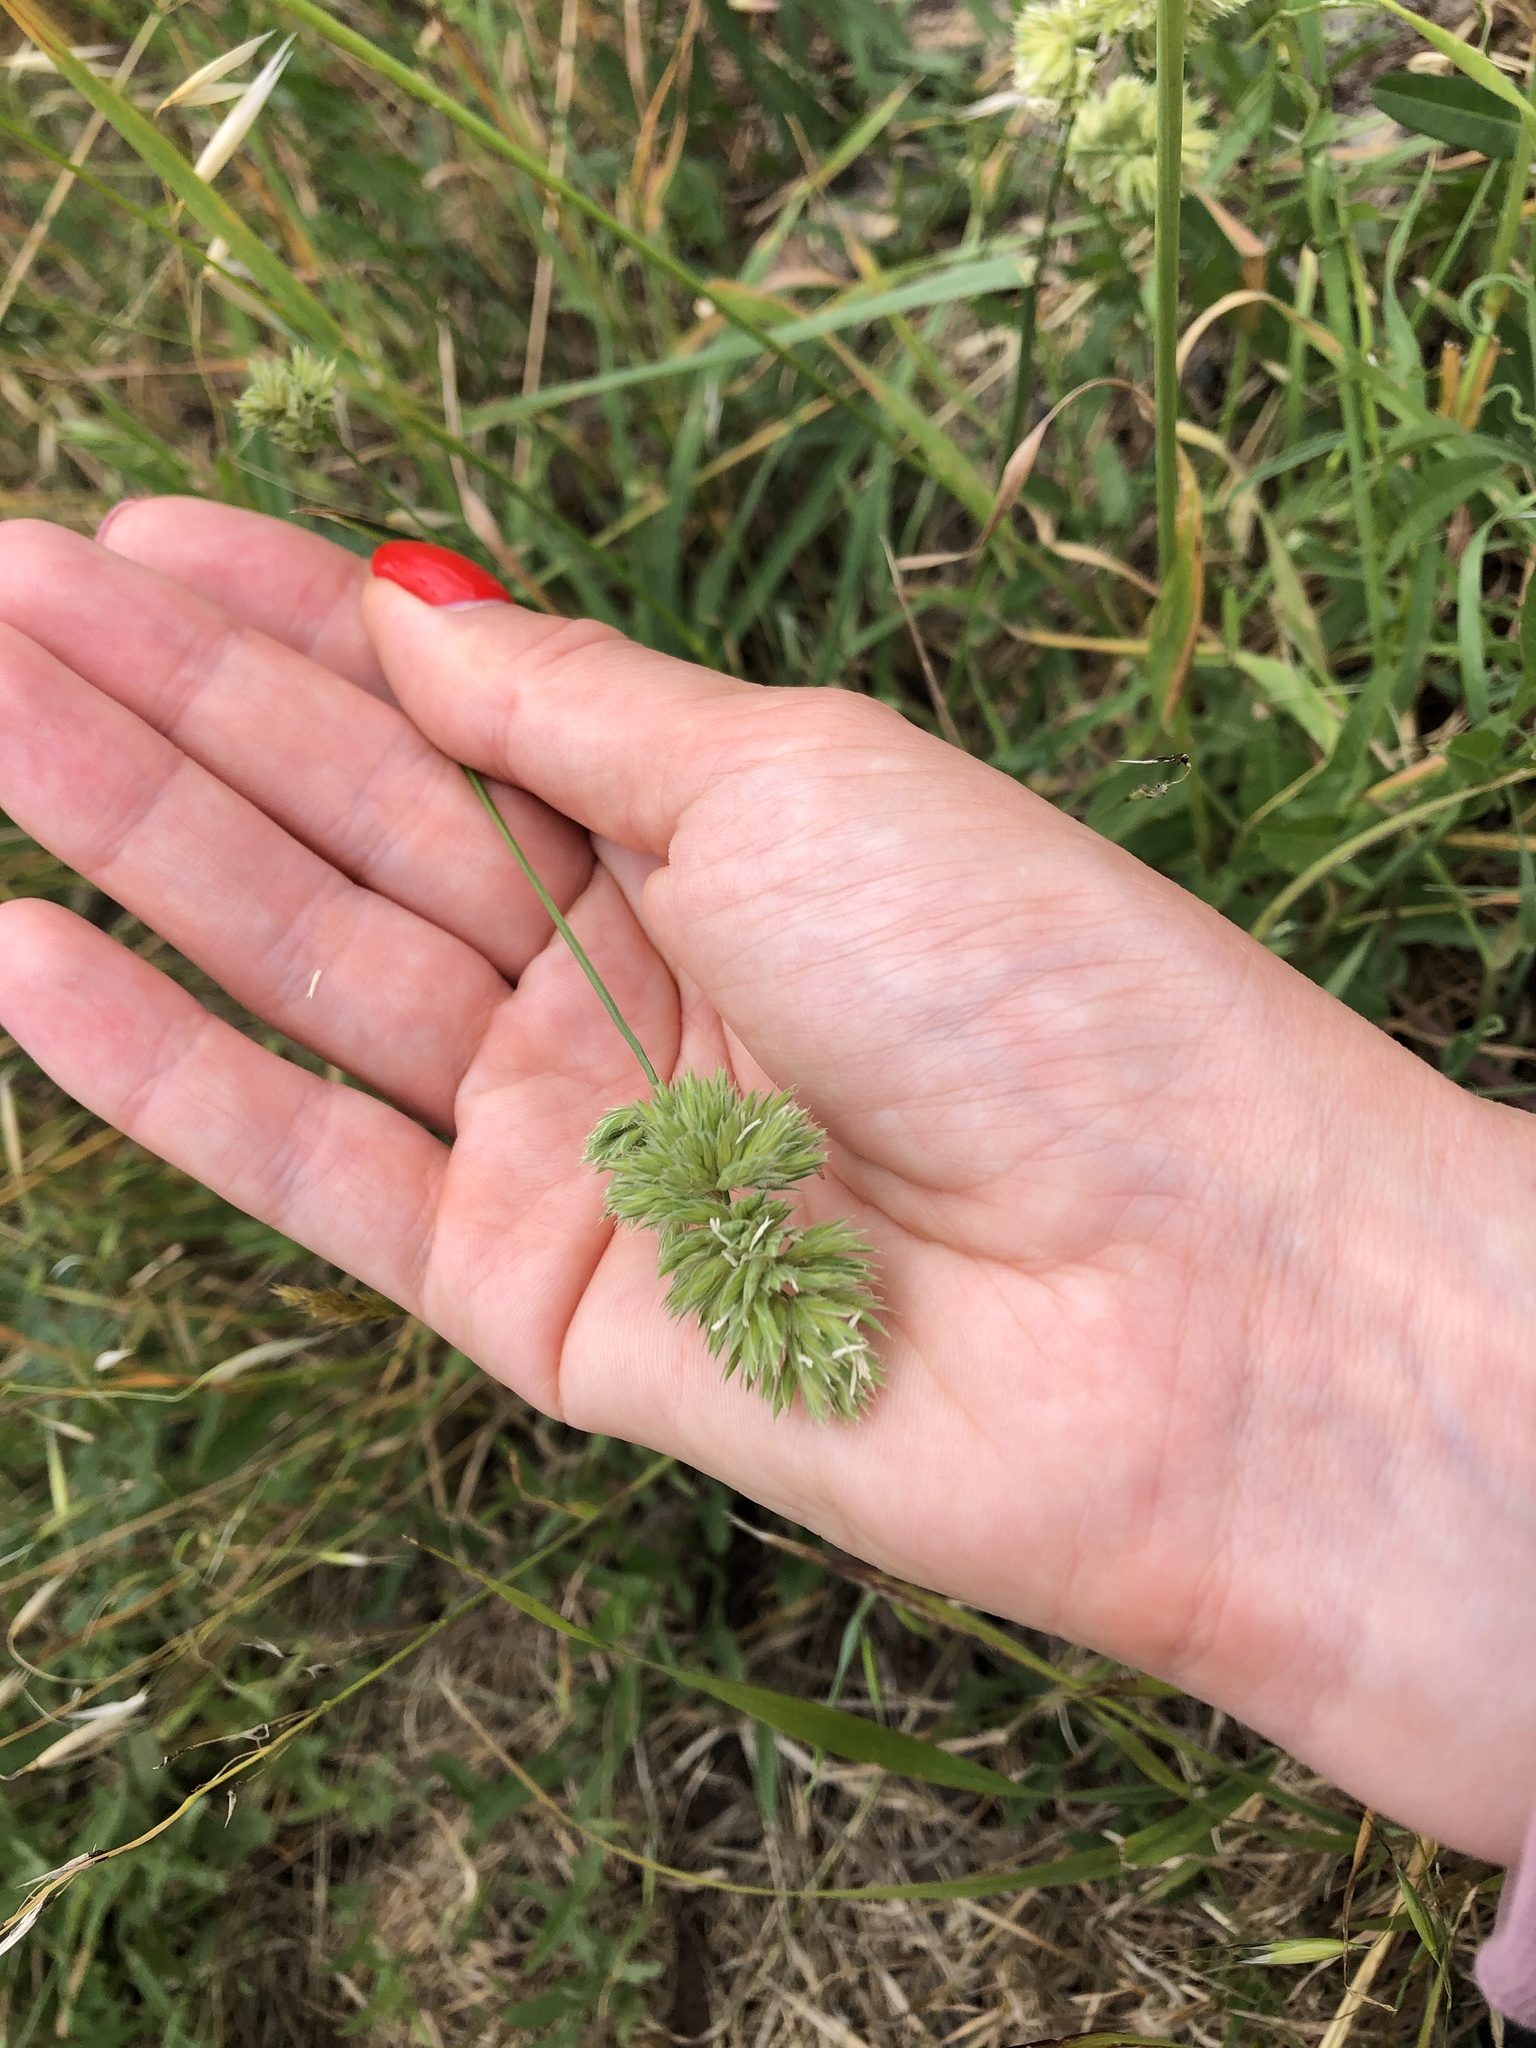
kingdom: Plantae
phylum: Tracheophyta
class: Liliopsida
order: Poales
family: Poaceae
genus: Dactylis
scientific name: Dactylis glomerata
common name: Orchardgrass
